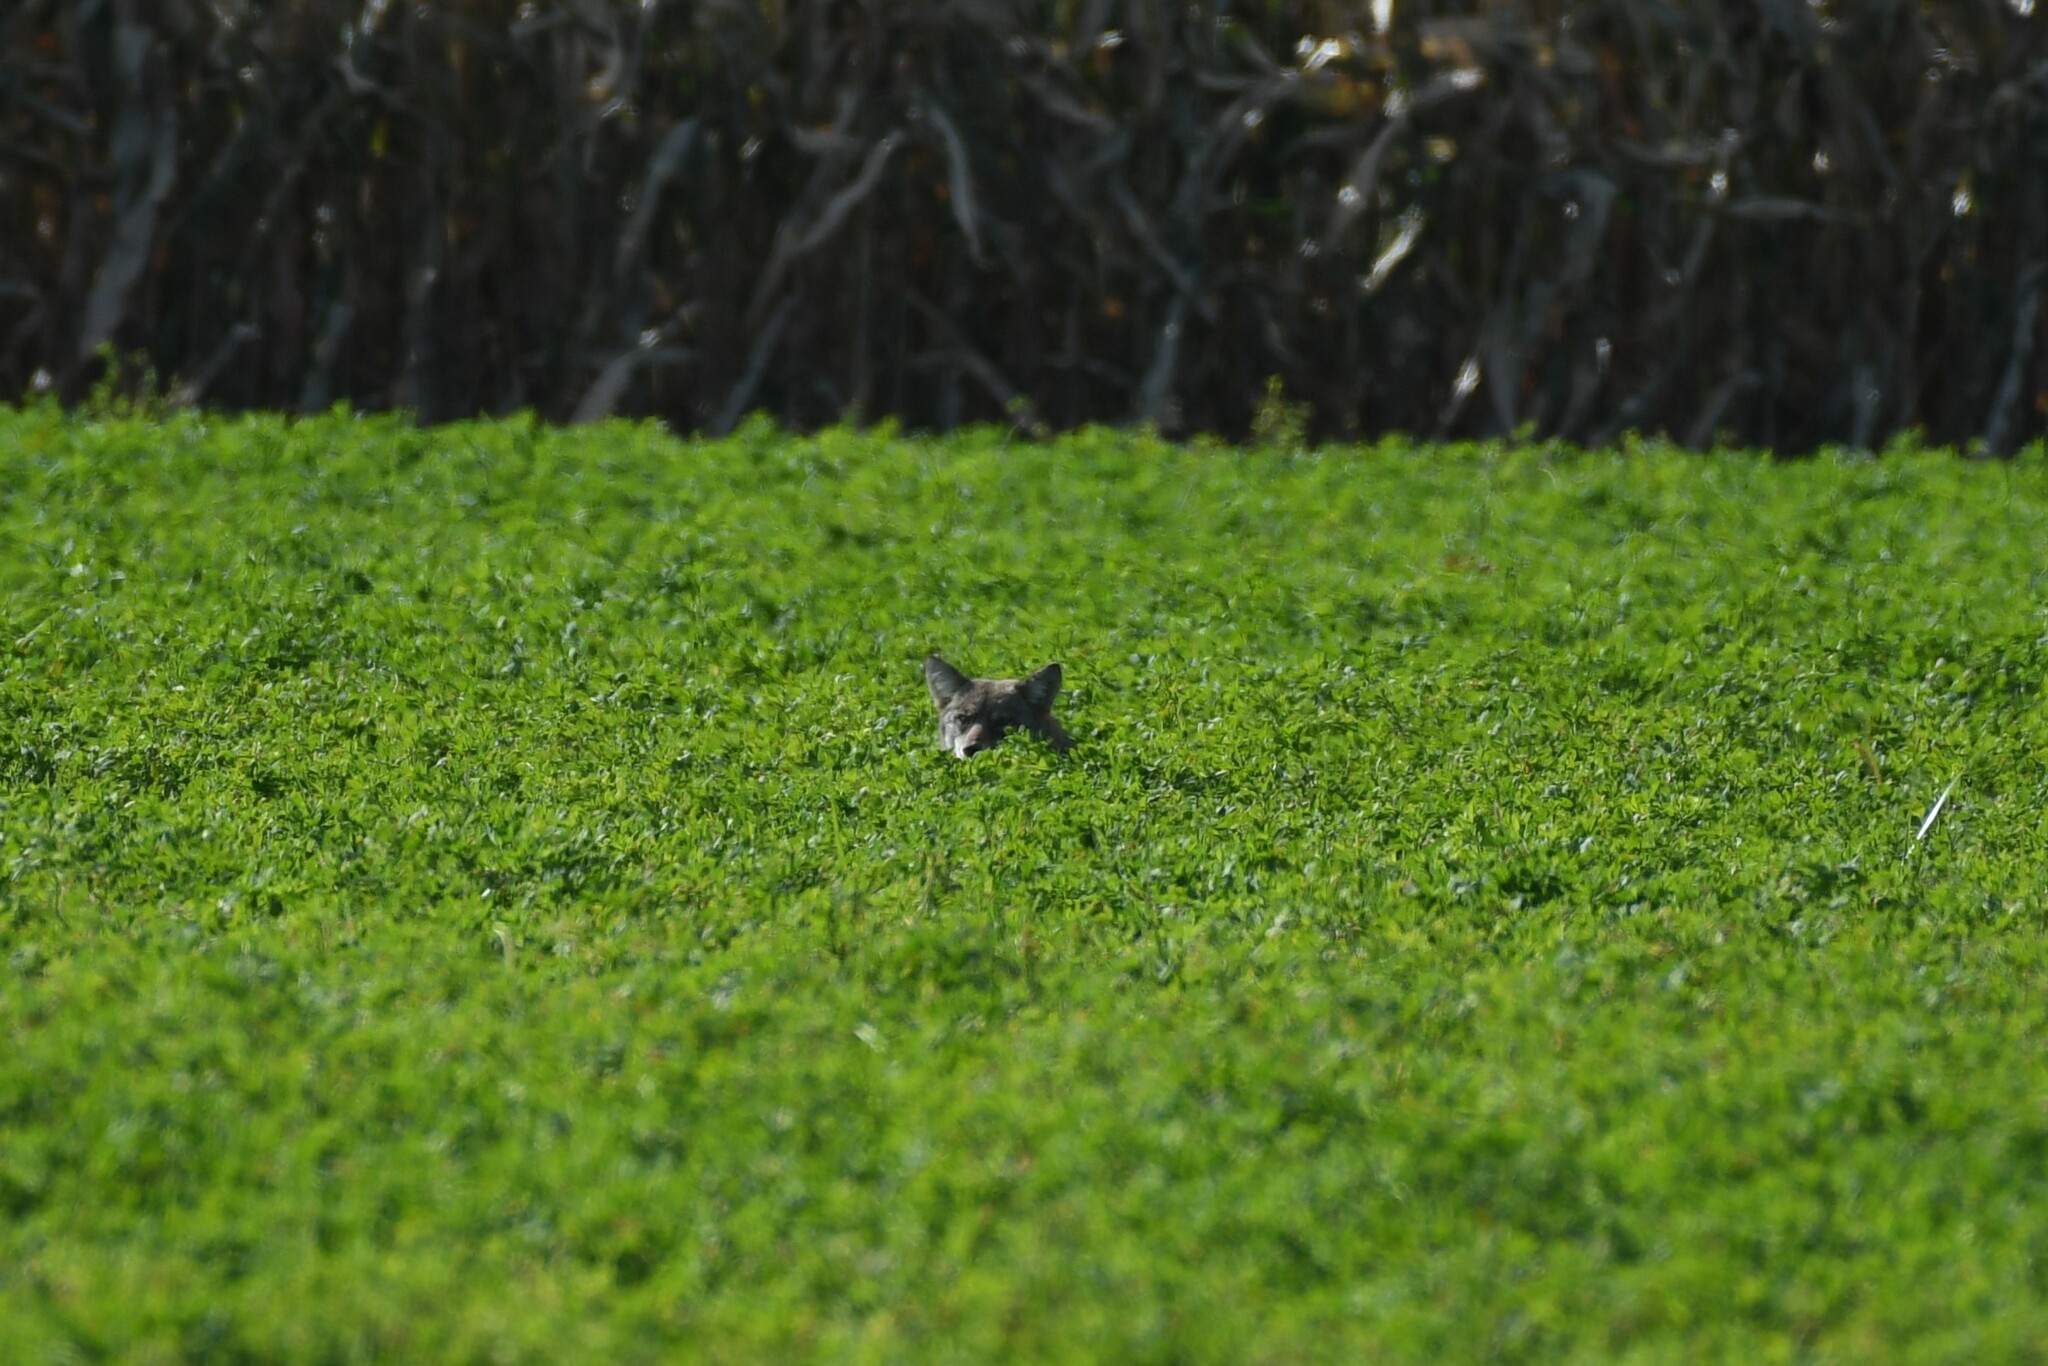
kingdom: Animalia
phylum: Chordata
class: Mammalia
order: Carnivora
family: Canidae
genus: Canis
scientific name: Canis latrans
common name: Coyote
